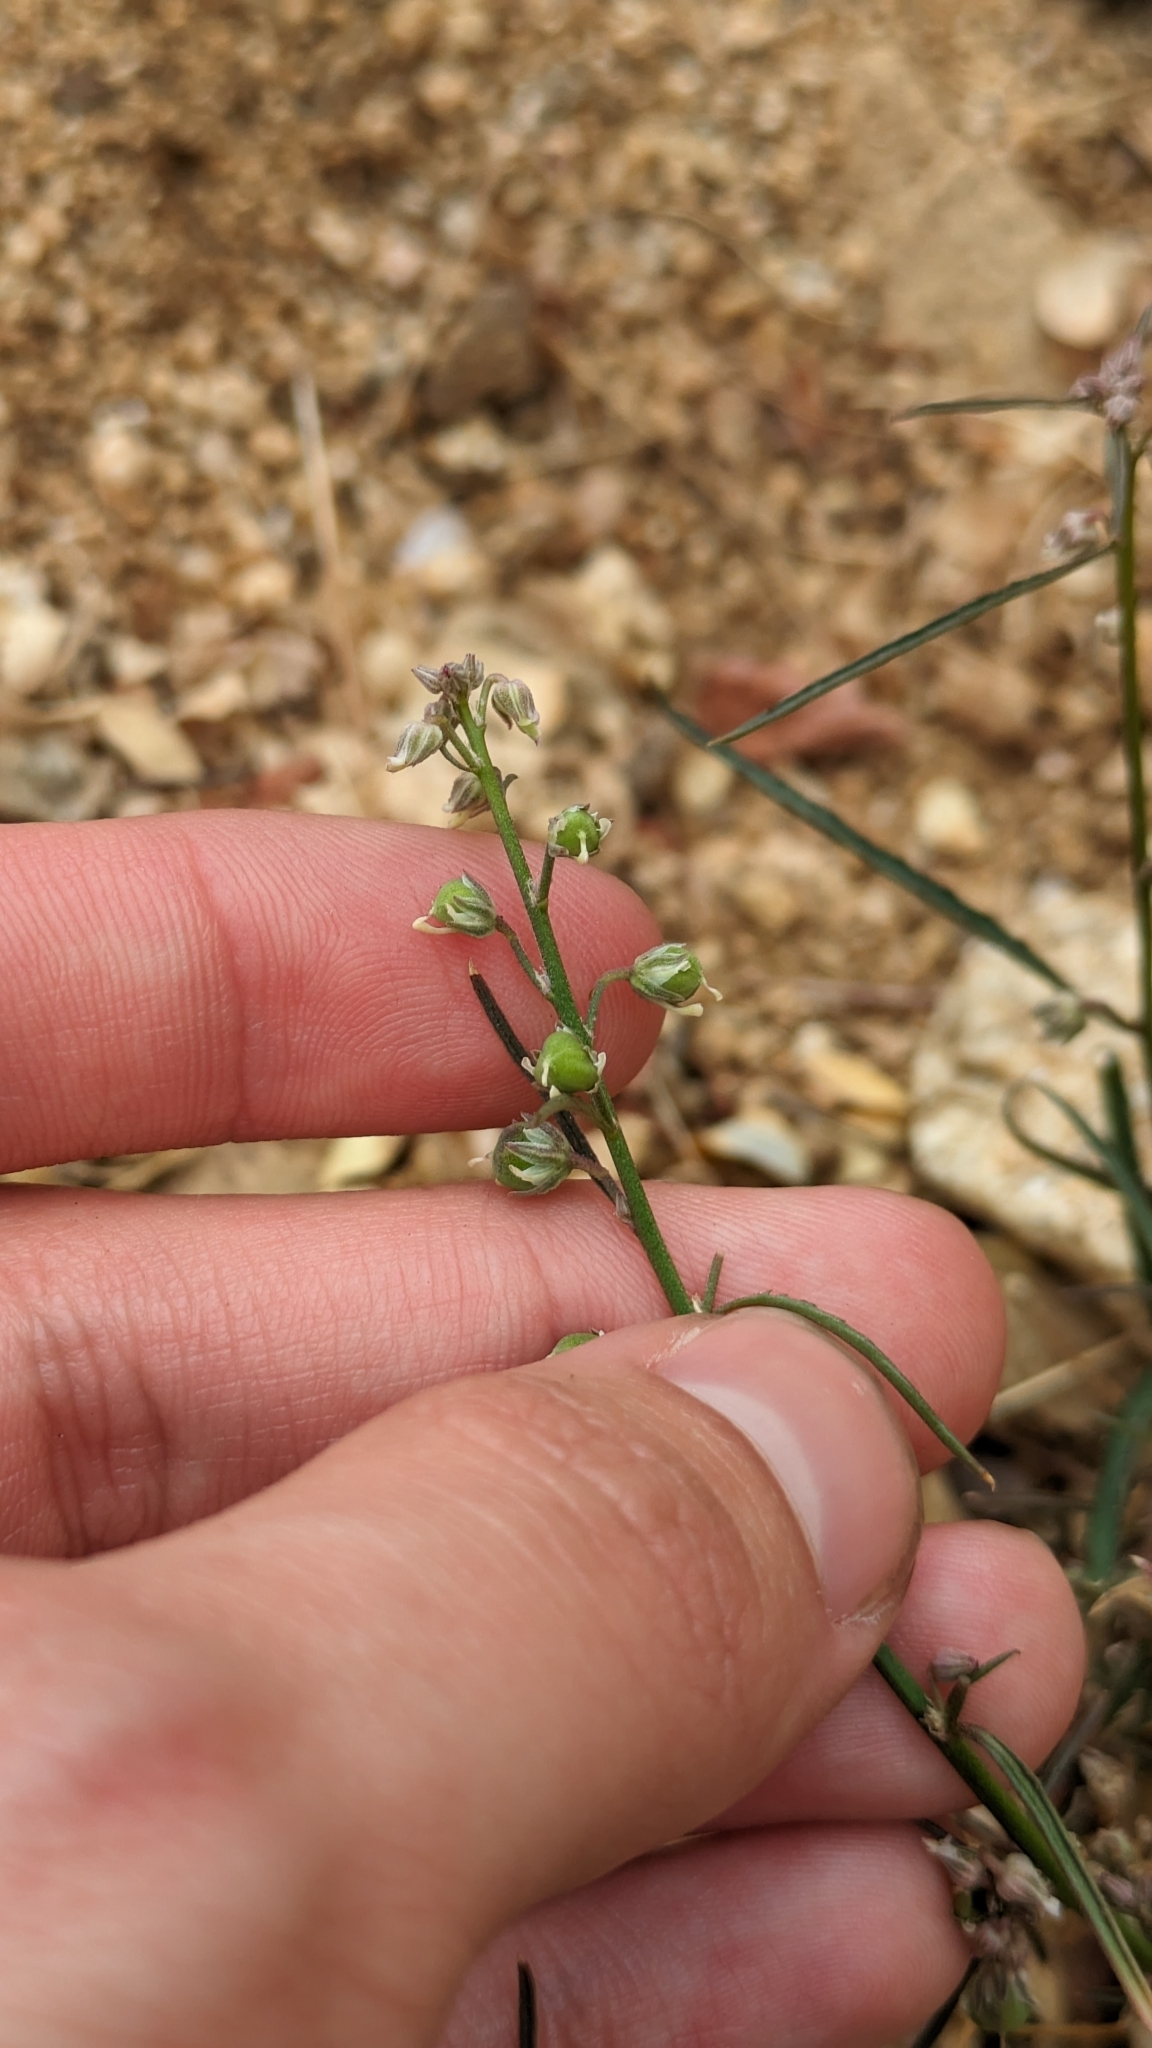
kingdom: Plantae
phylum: Tracheophyta
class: Magnoliopsida
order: Malpighiales
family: Violaceae
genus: Hybanthus
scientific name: Hybanthus fruticulosus
